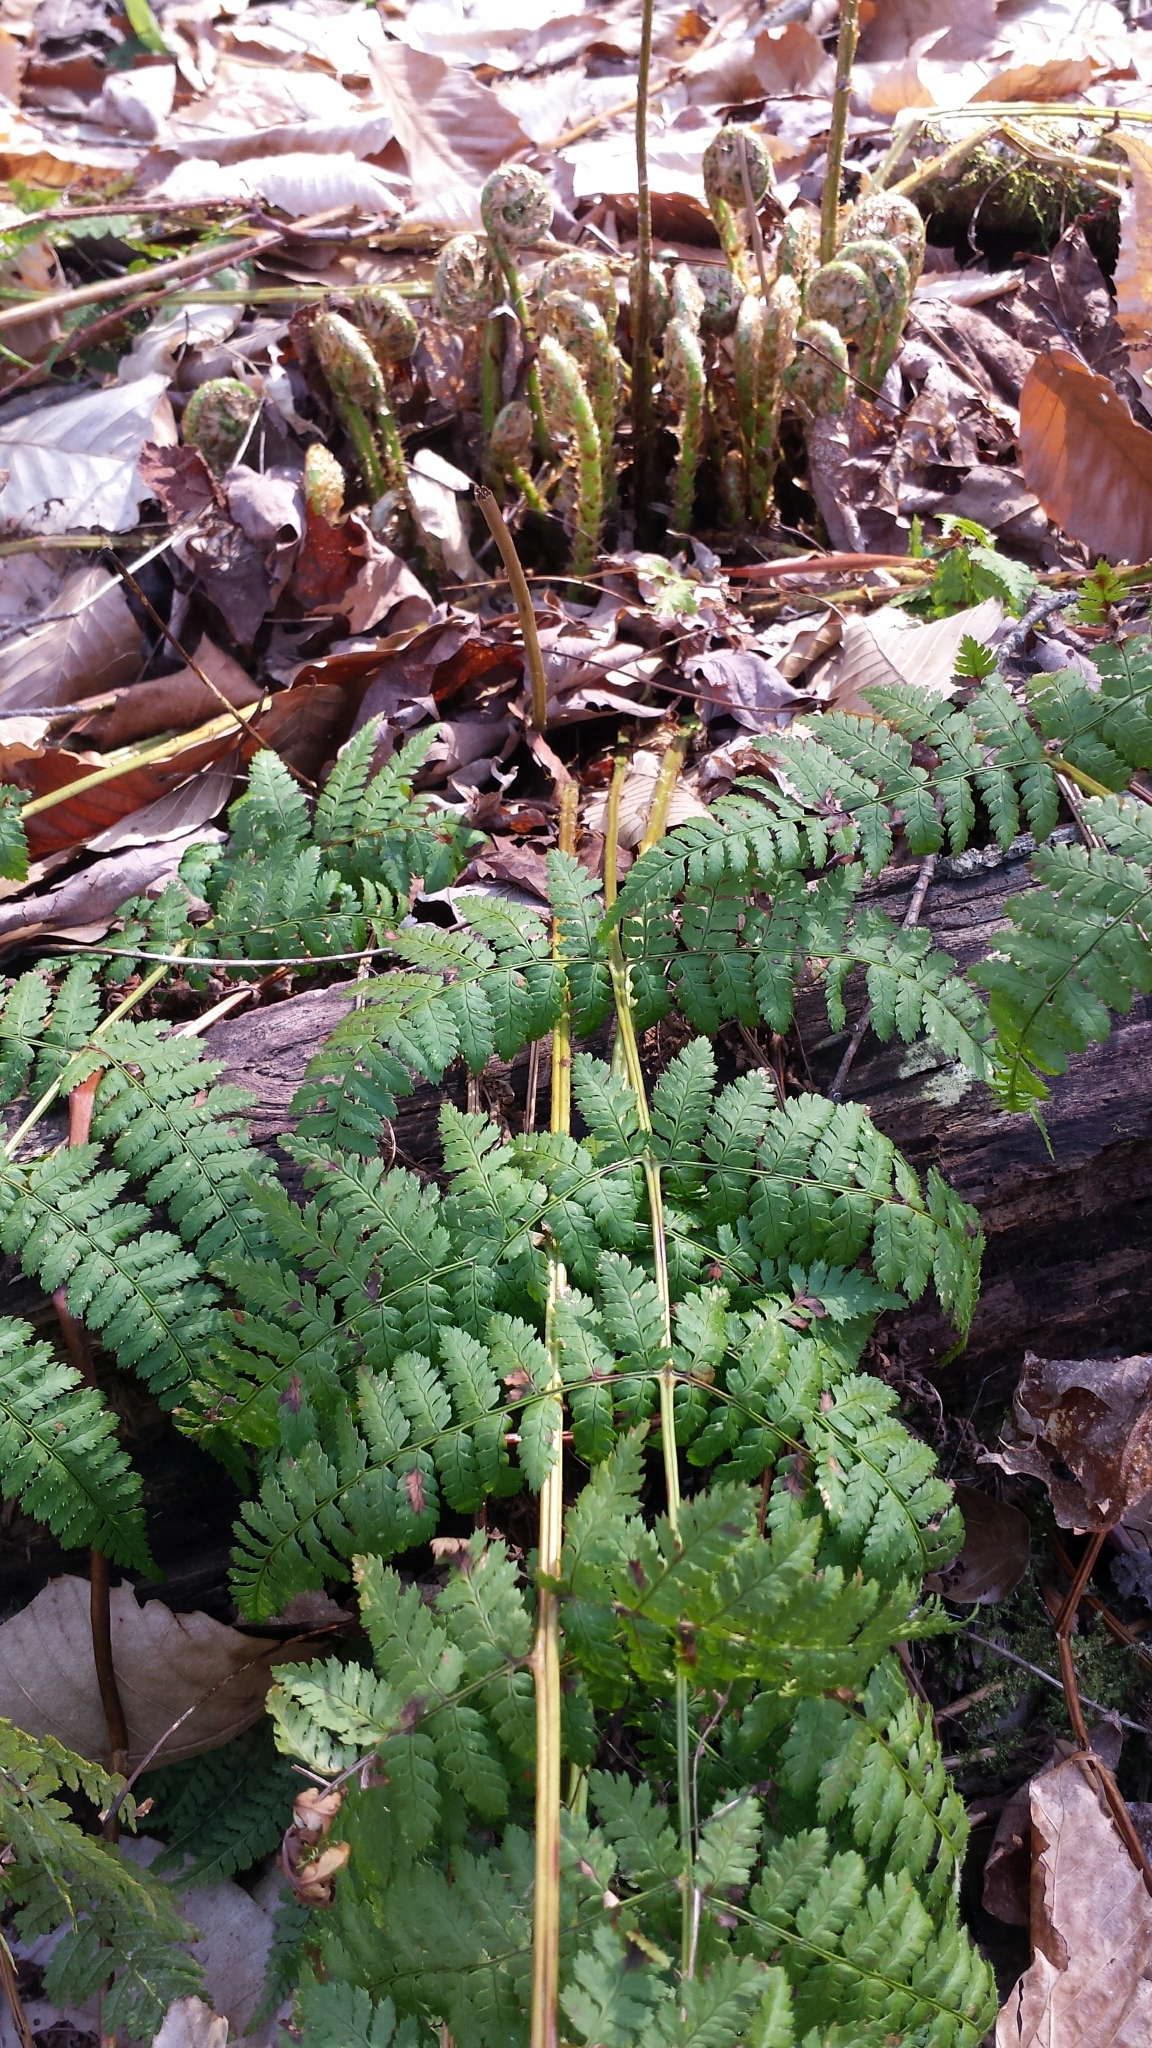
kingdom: Plantae
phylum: Tracheophyta
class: Polypodiopsida
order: Polypodiales
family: Dryopteridaceae
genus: Dryopteris
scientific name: Dryopteris intermedia
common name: Evergreen wood fern
